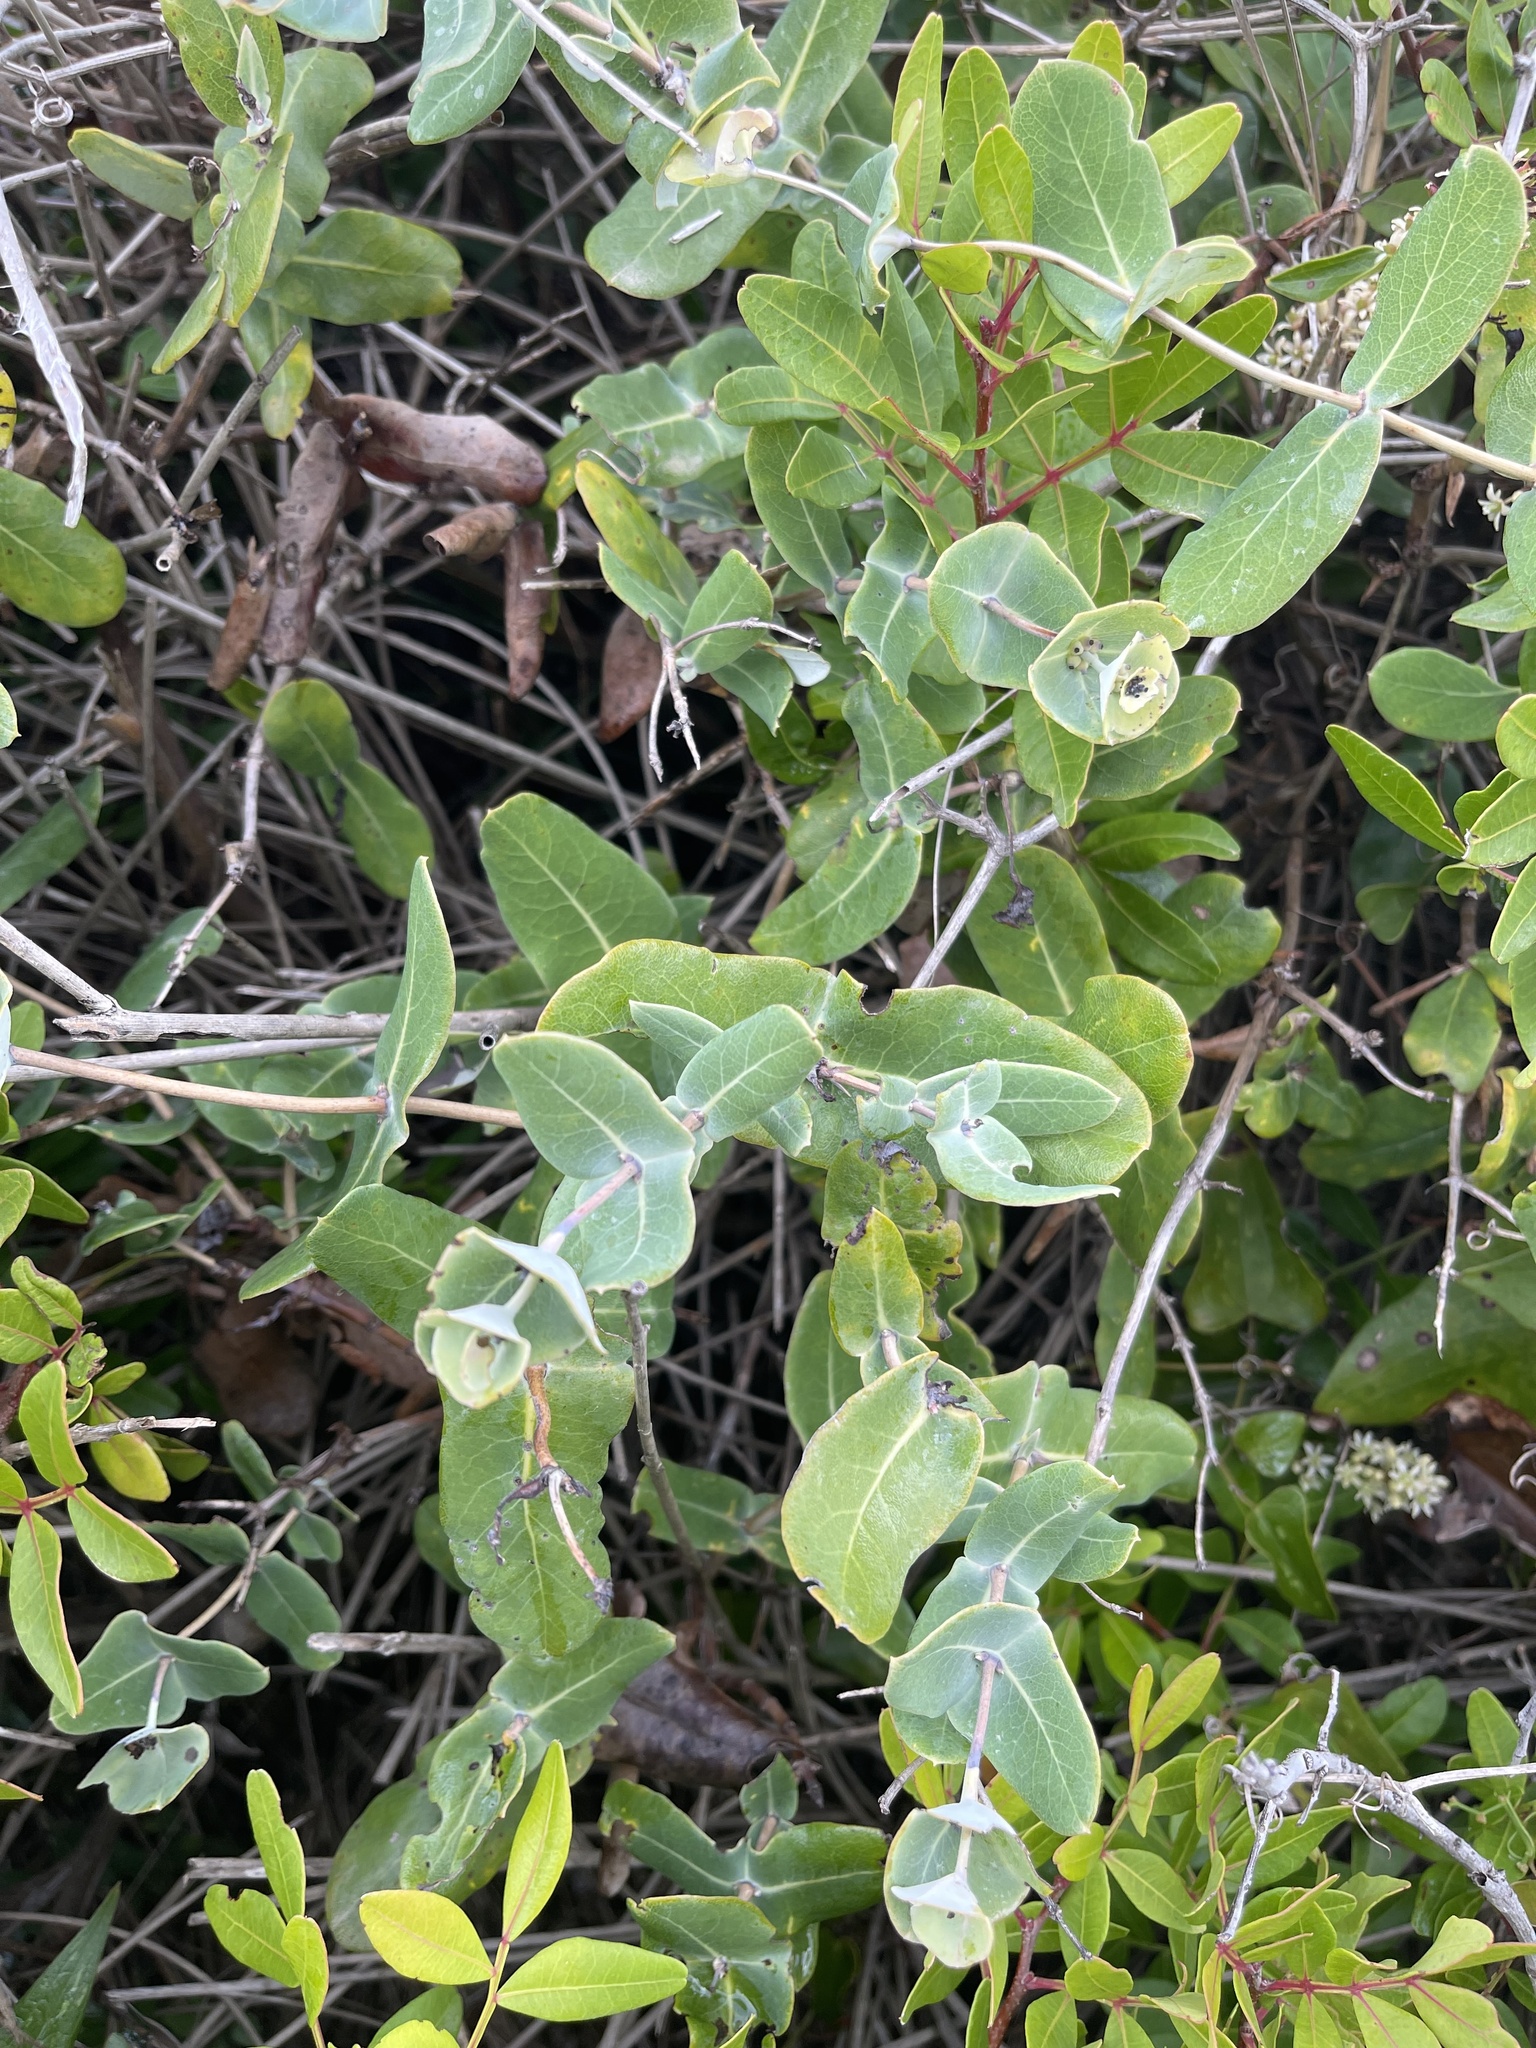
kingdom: Plantae
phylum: Tracheophyta
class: Magnoliopsida
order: Dipsacales
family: Caprifoliaceae
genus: Lonicera
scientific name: Lonicera implexa
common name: Minorca honeysuckle
